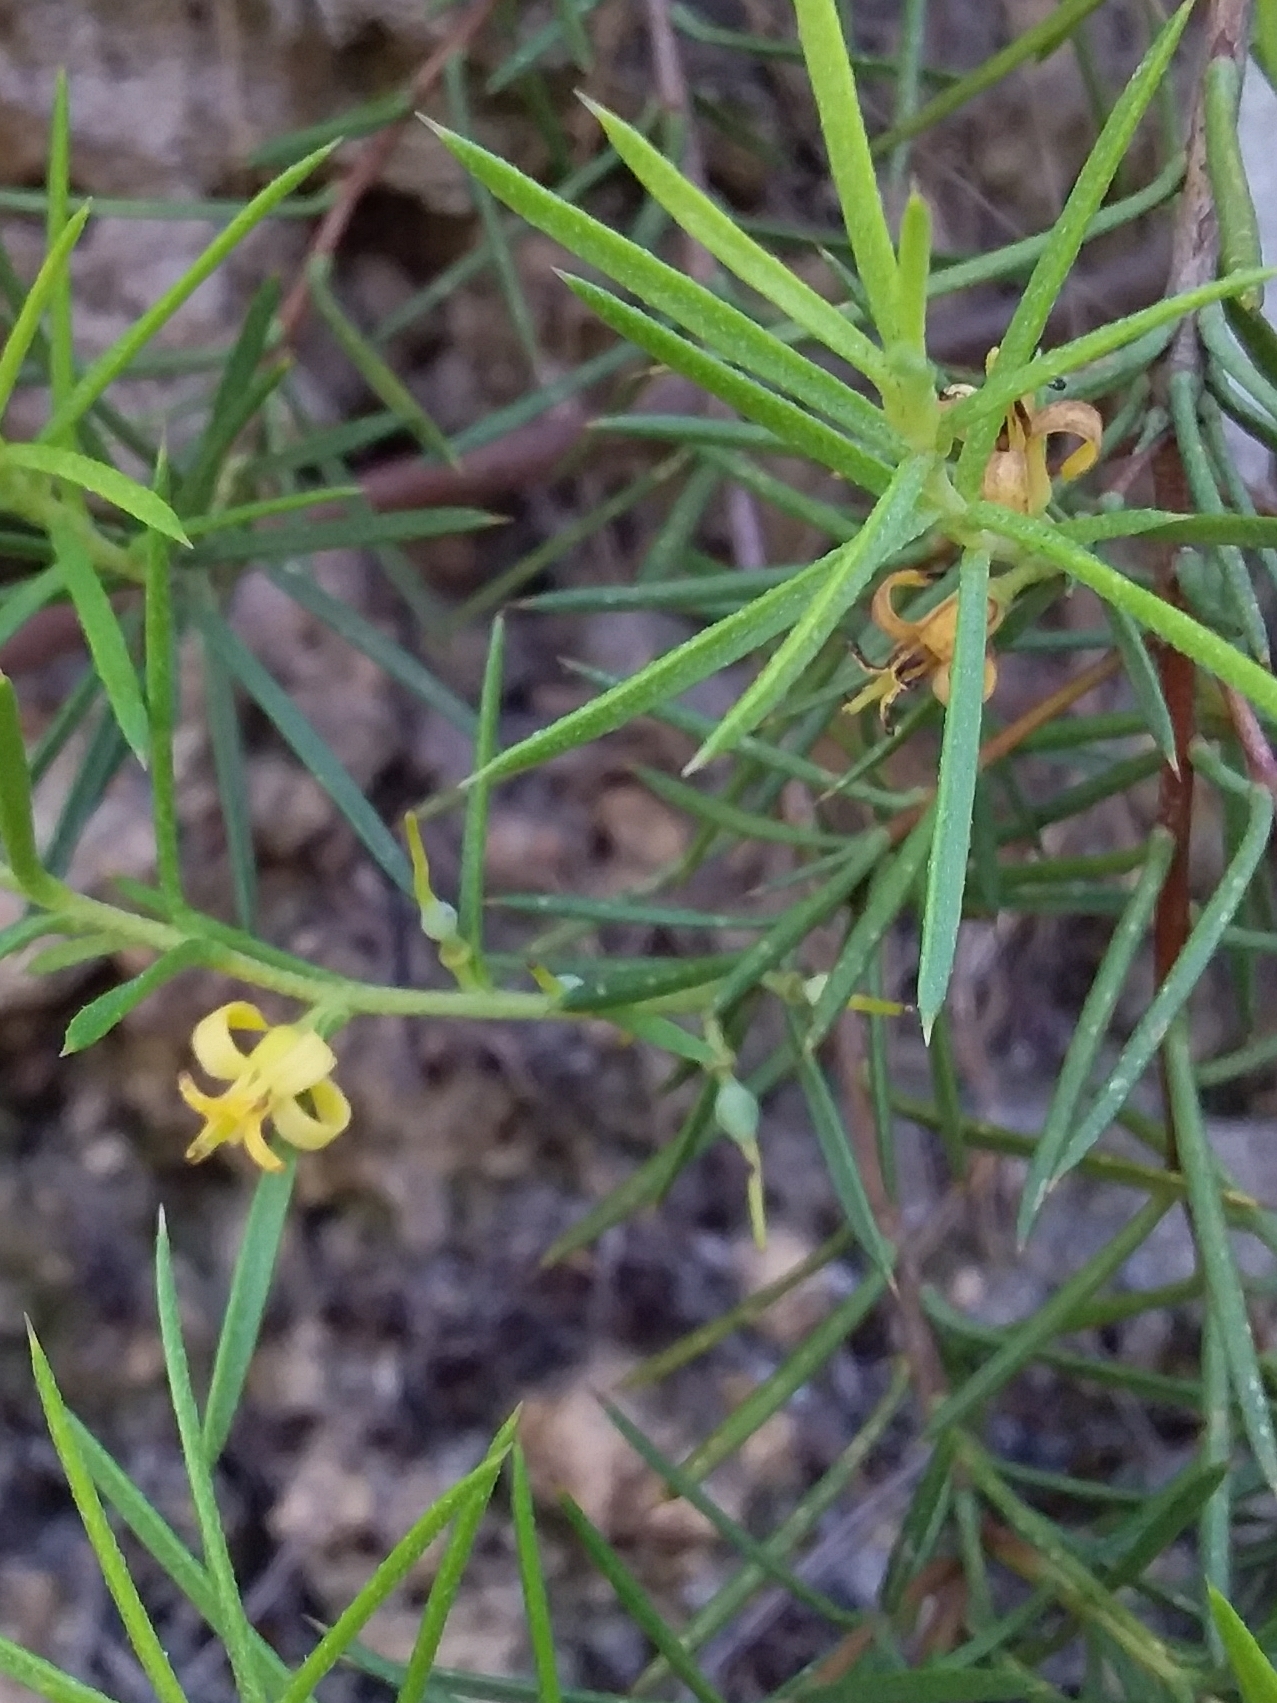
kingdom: Plantae
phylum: Tracheophyta
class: Magnoliopsida
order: Proteales
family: Proteaceae
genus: Persoonia
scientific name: Persoonia juniperina
